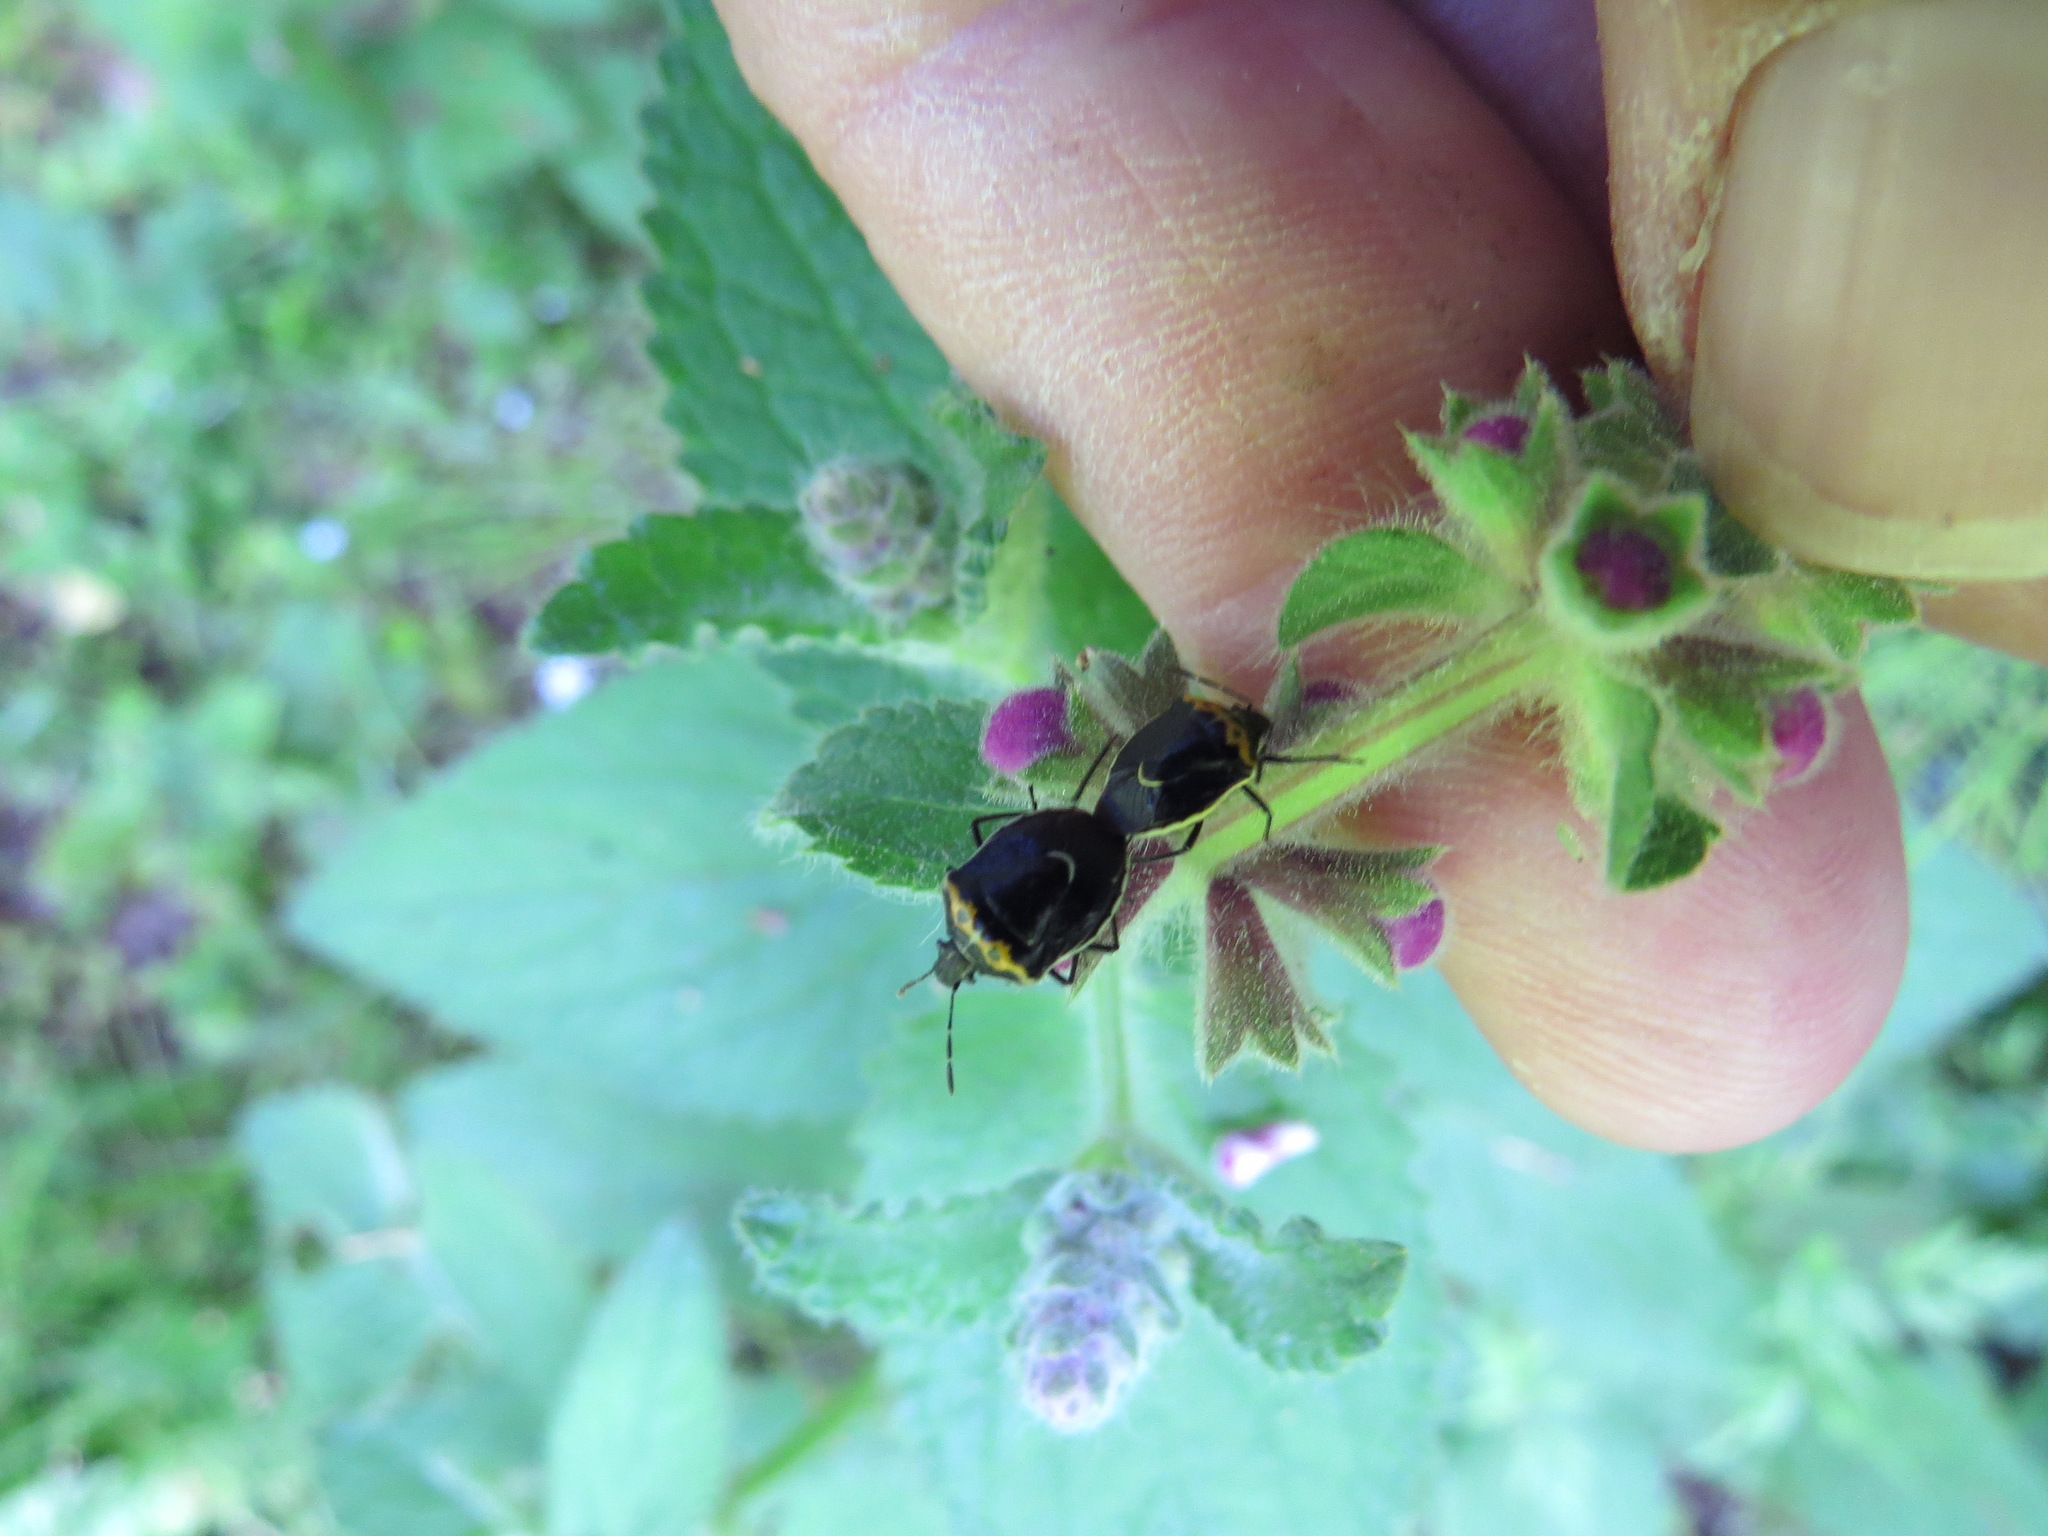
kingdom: Animalia
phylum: Arthropoda
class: Insecta
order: Hemiptera
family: Pentatomidae
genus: Cosmopepla
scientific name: Cosmopepla conspicillaris
